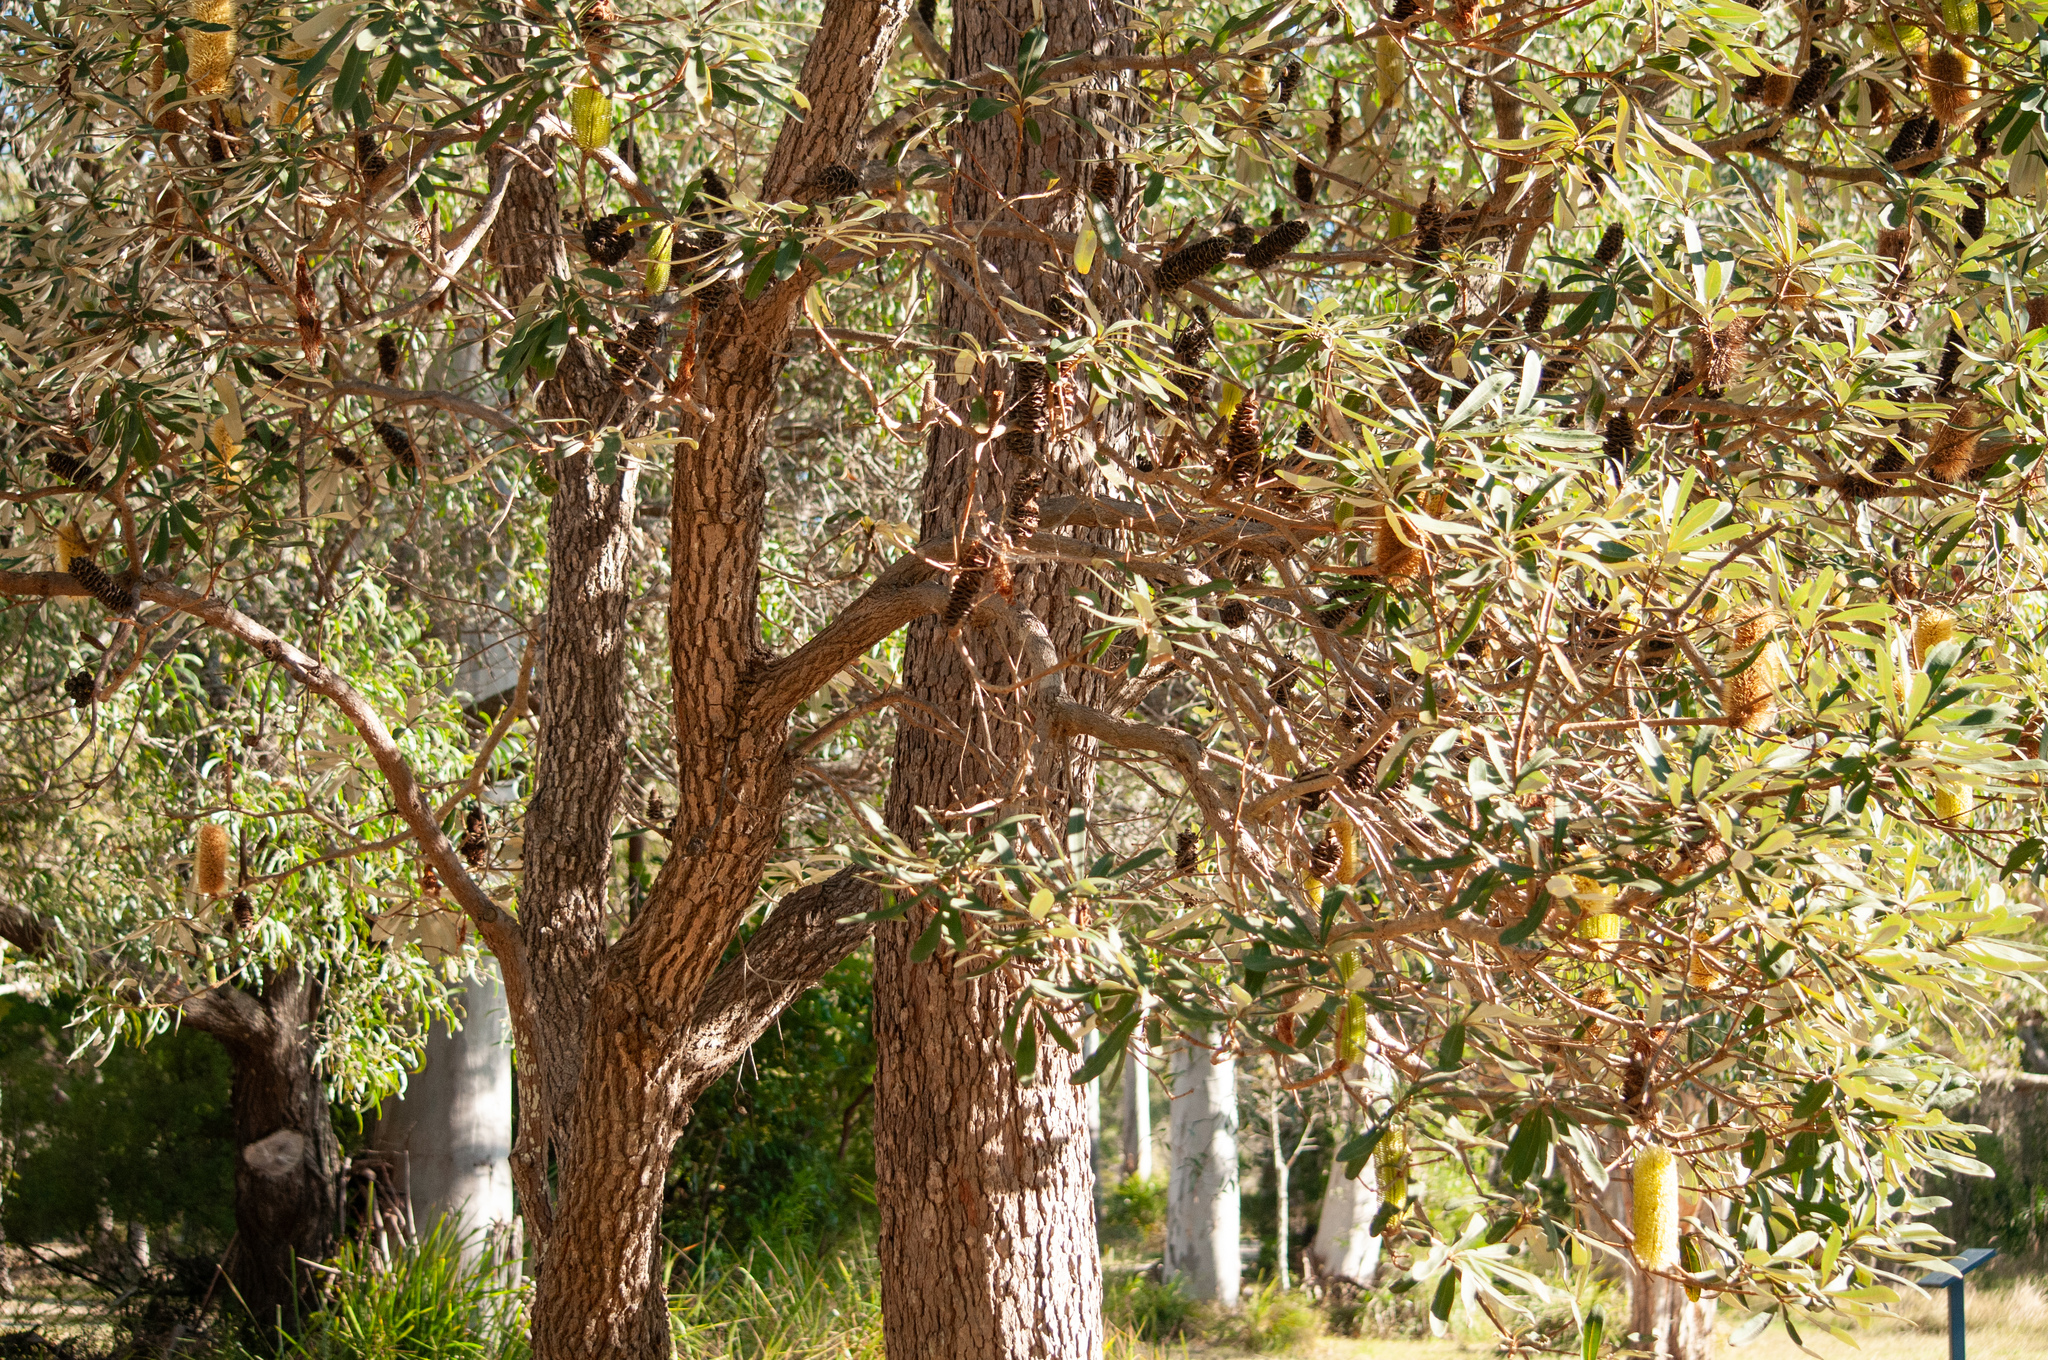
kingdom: Plantae
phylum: Tracheophyta
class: Magnoliopsida
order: Proteales
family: Proteaceae
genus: Banksia
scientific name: Banksia integrifolia
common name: White-honeysuckle
